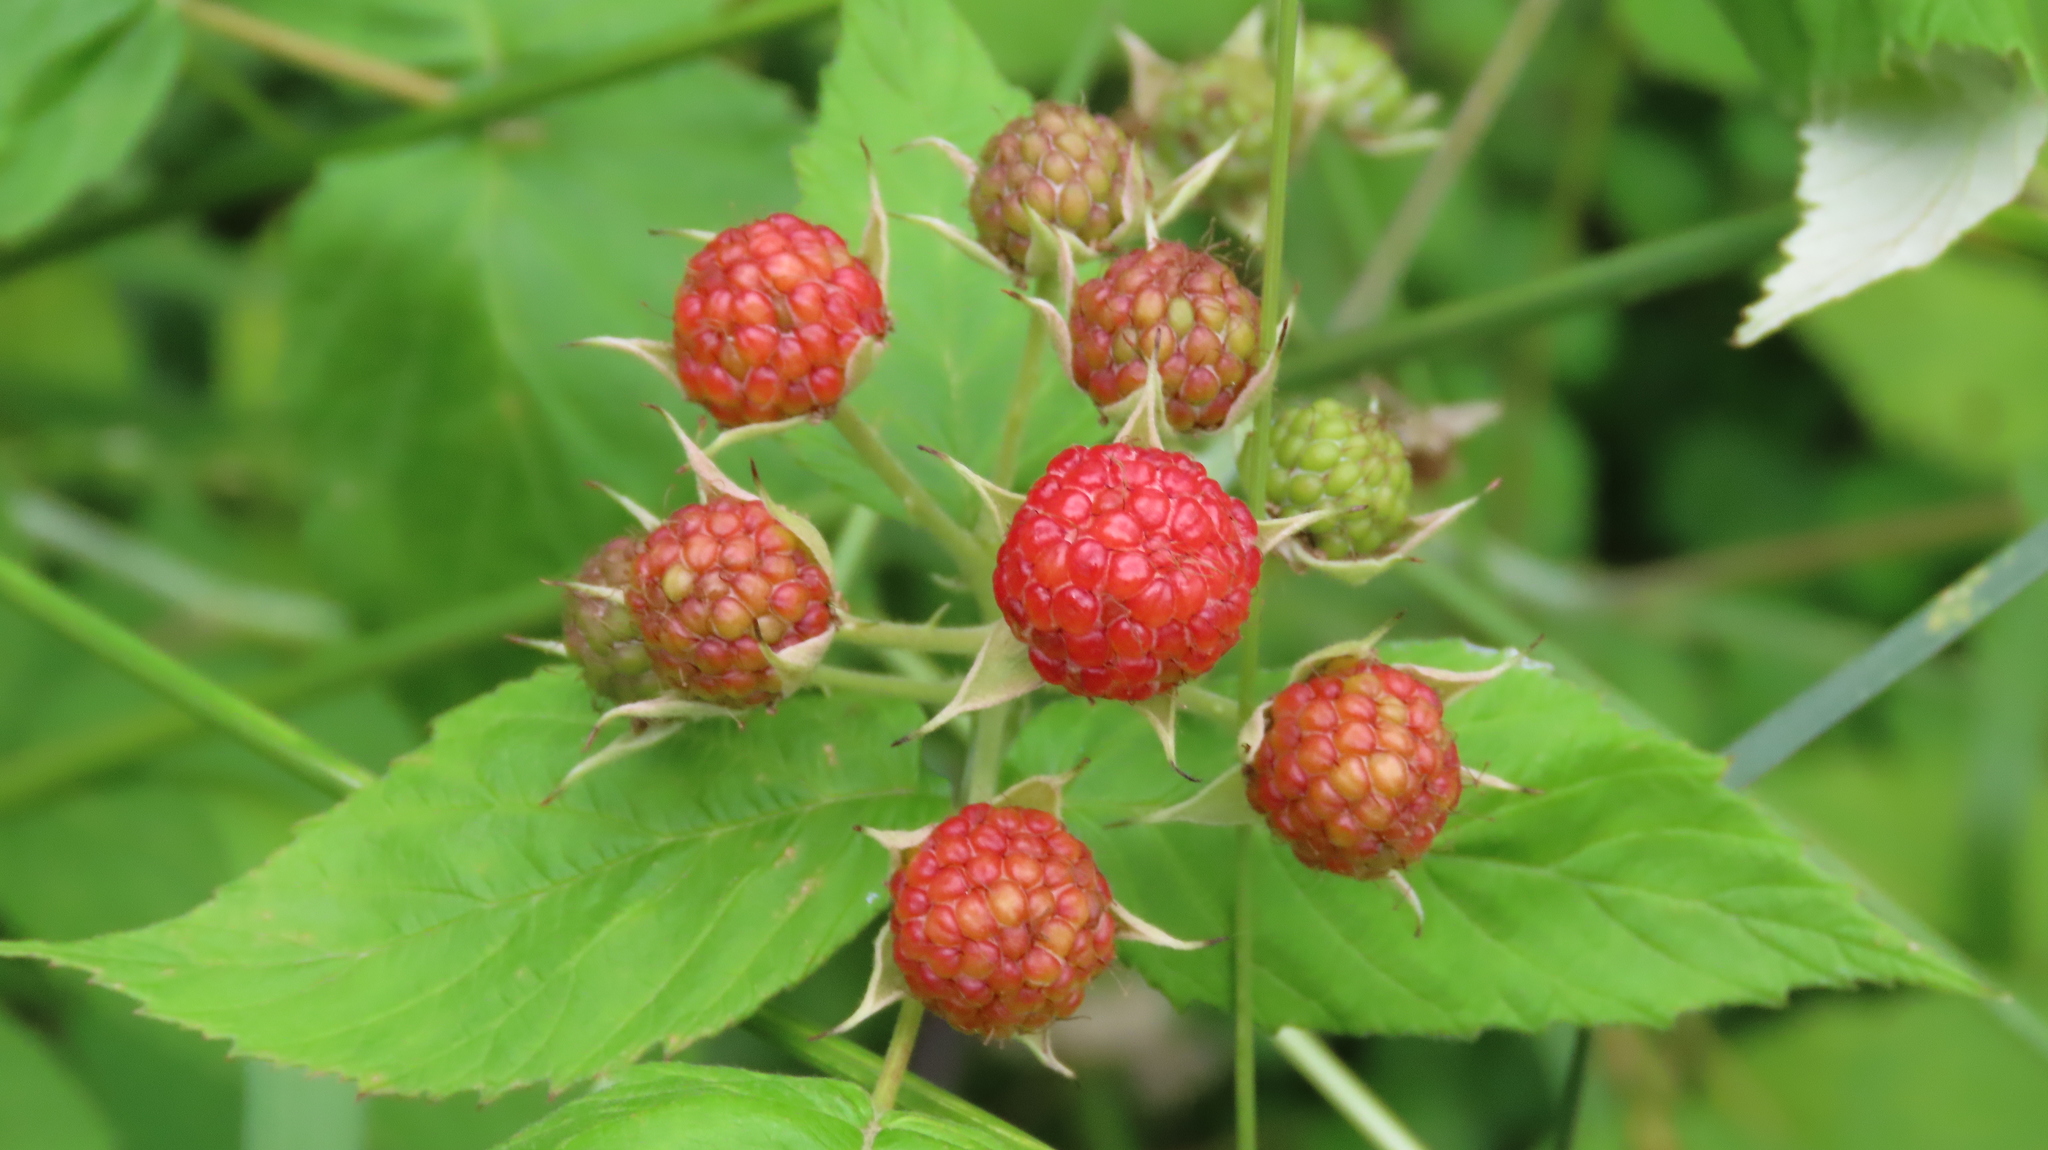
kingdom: Plantae
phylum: Tracheophyta
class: Magnoliopsida
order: Rosales
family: Rosaceae
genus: Rubus
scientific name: Rubus occidentalis
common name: Black raspberry
